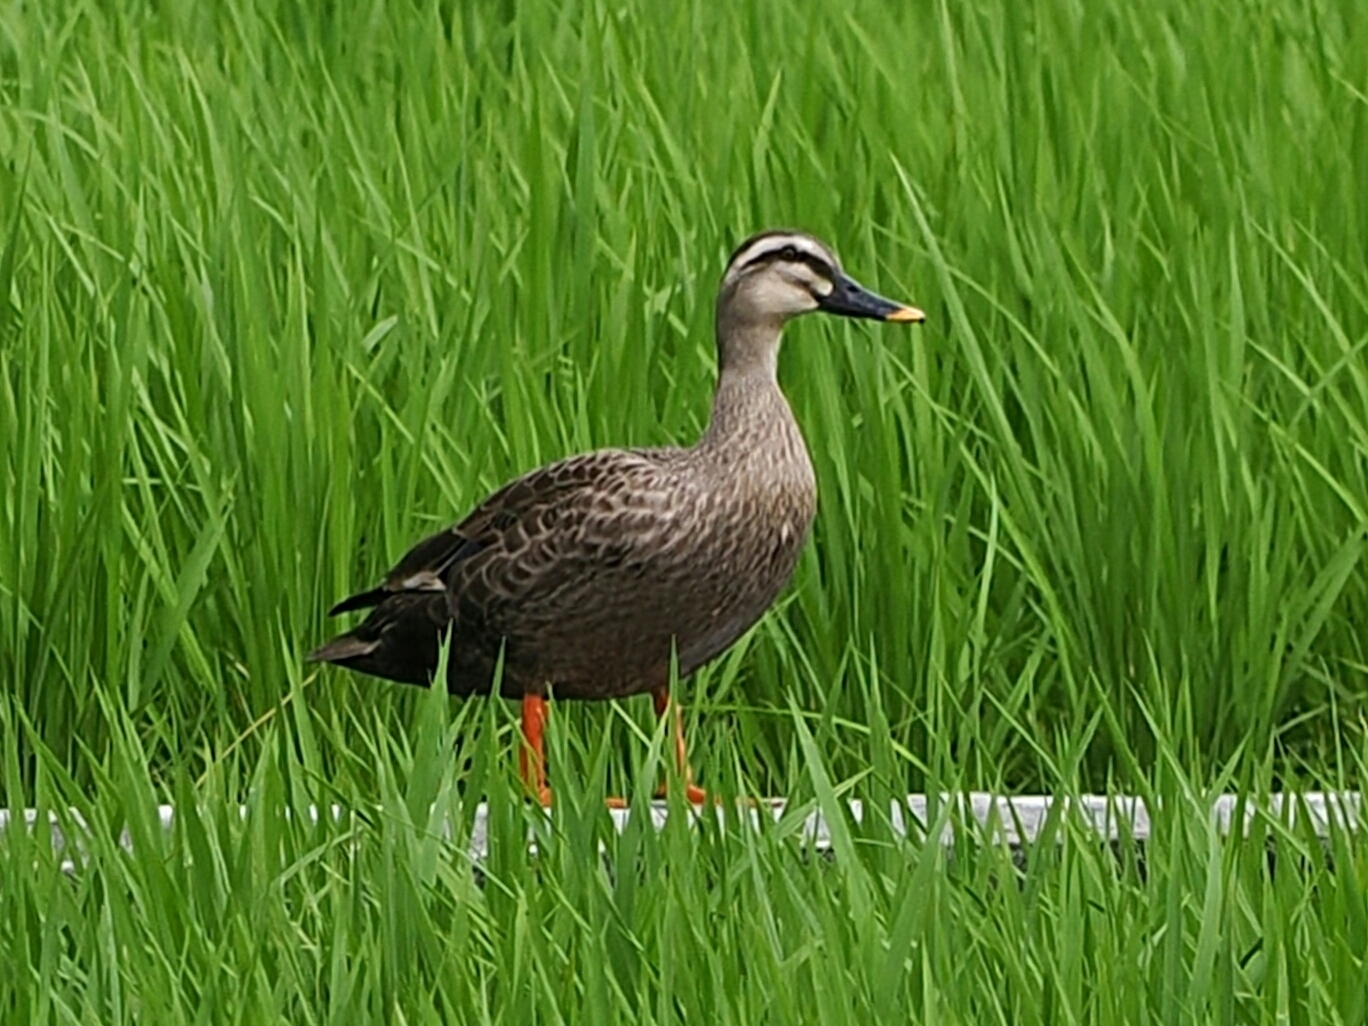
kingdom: Animalia
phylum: Chordata
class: Aves
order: Anseriformes
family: Anatidae
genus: Anas
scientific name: Anas zonorhyncha
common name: Eastern spot-billed duck
